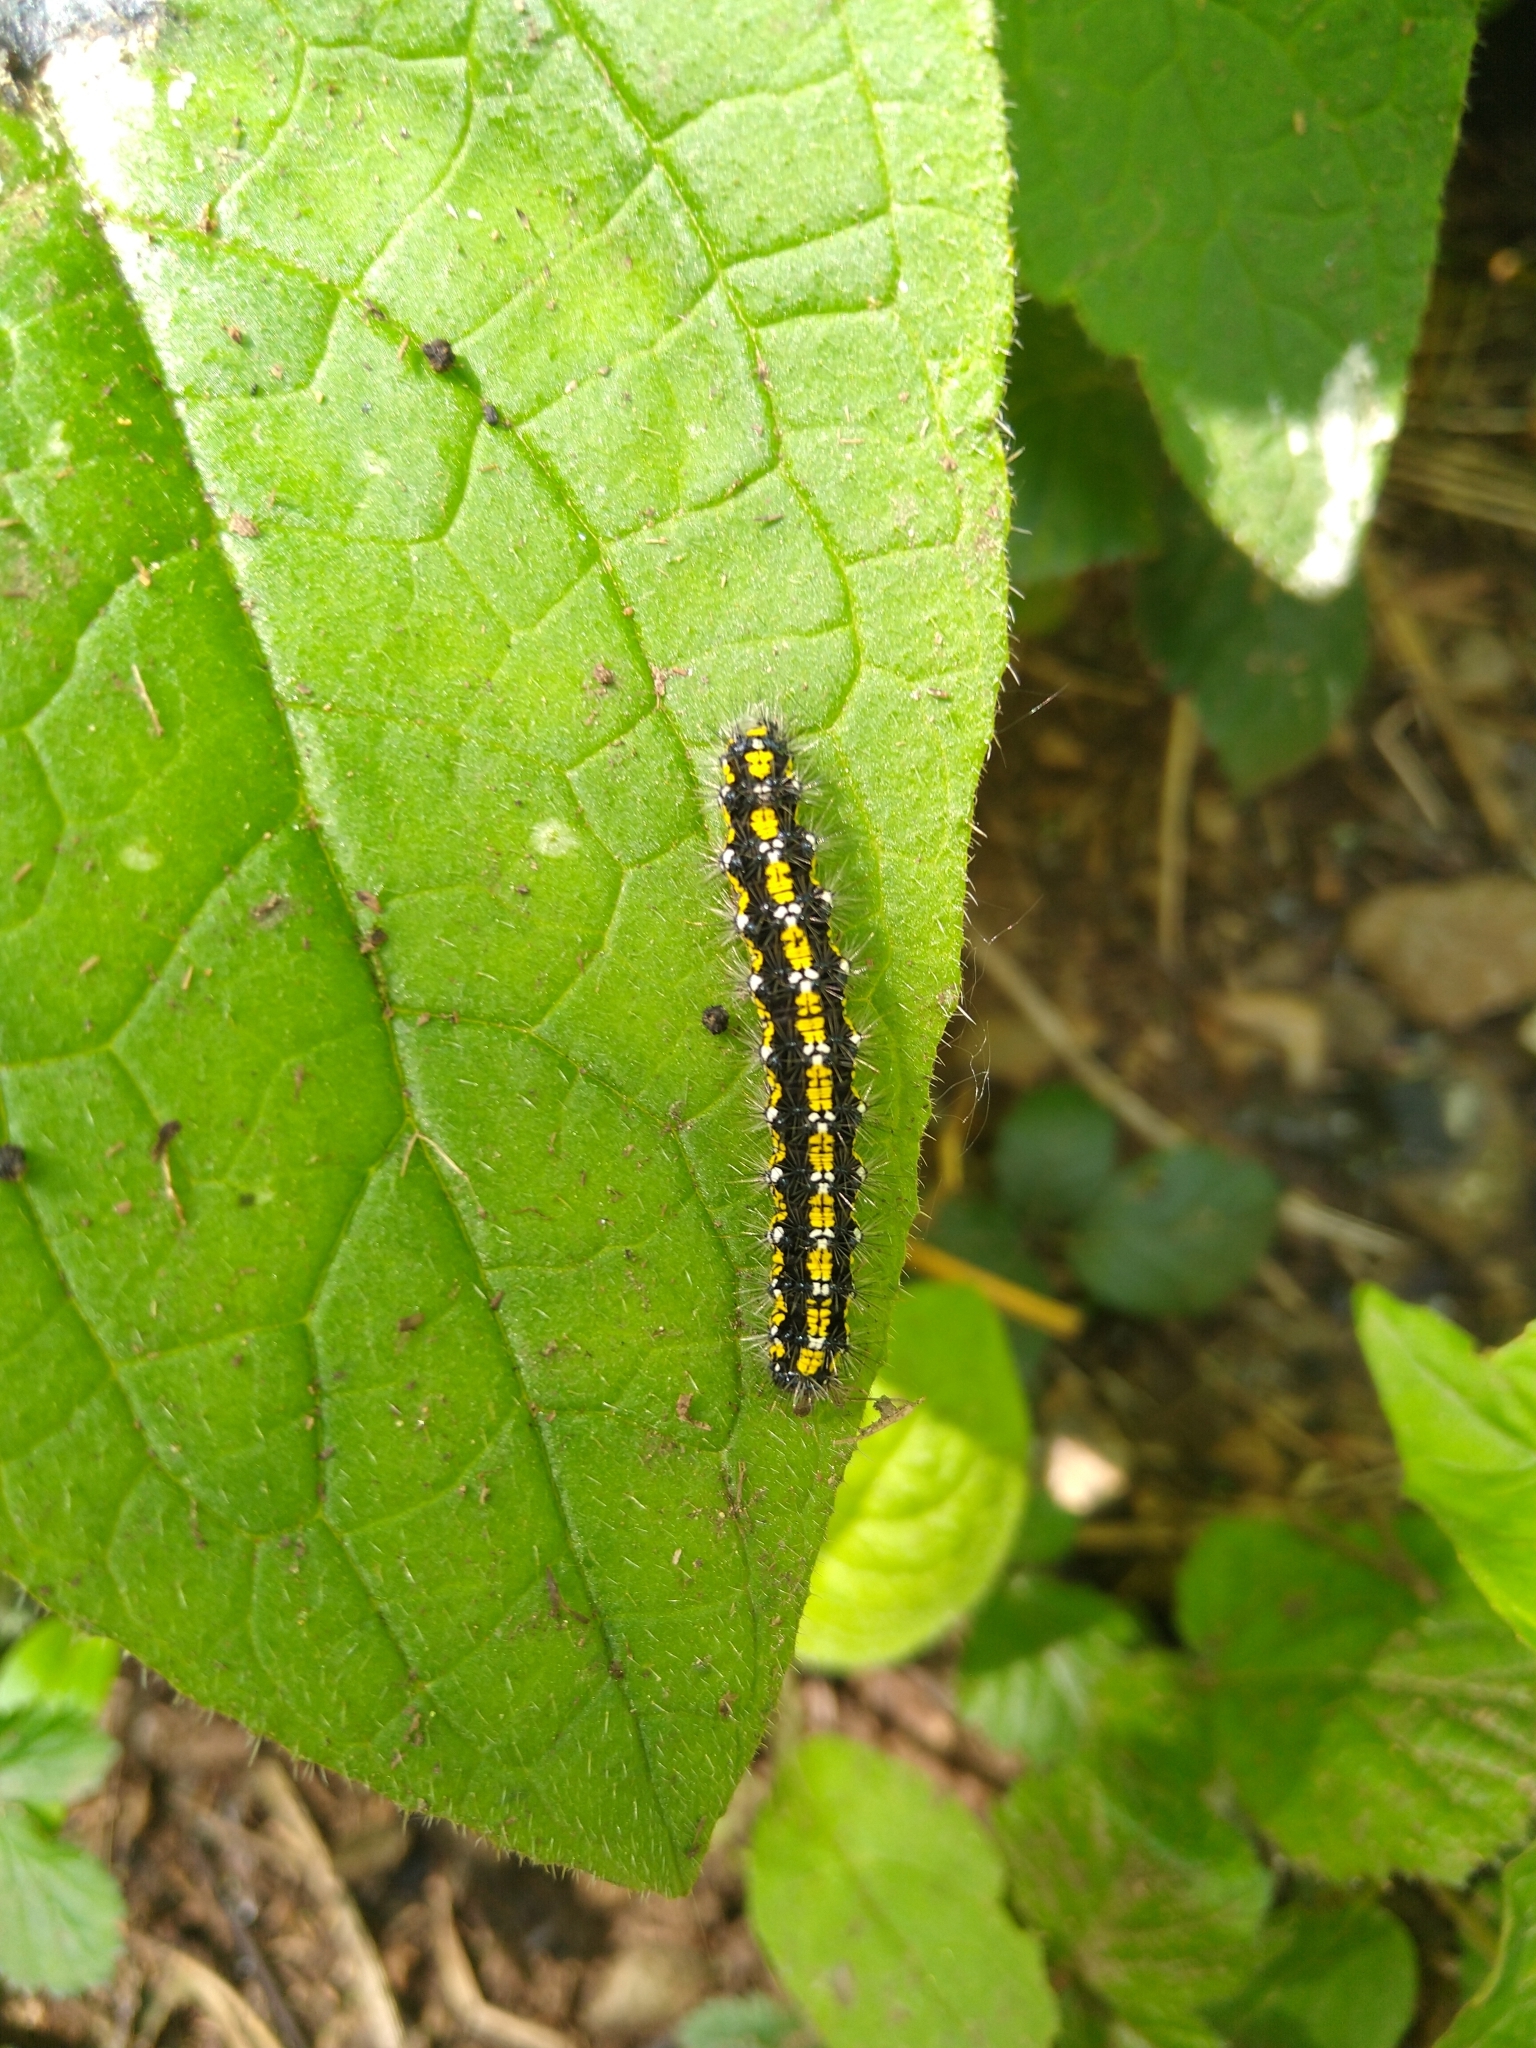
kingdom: Animalia
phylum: Arthropoda
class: Insecta
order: Lepidoptera
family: Erebidae
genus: Callimorpha
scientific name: Callimorpha dominula
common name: Scarlet tiger
